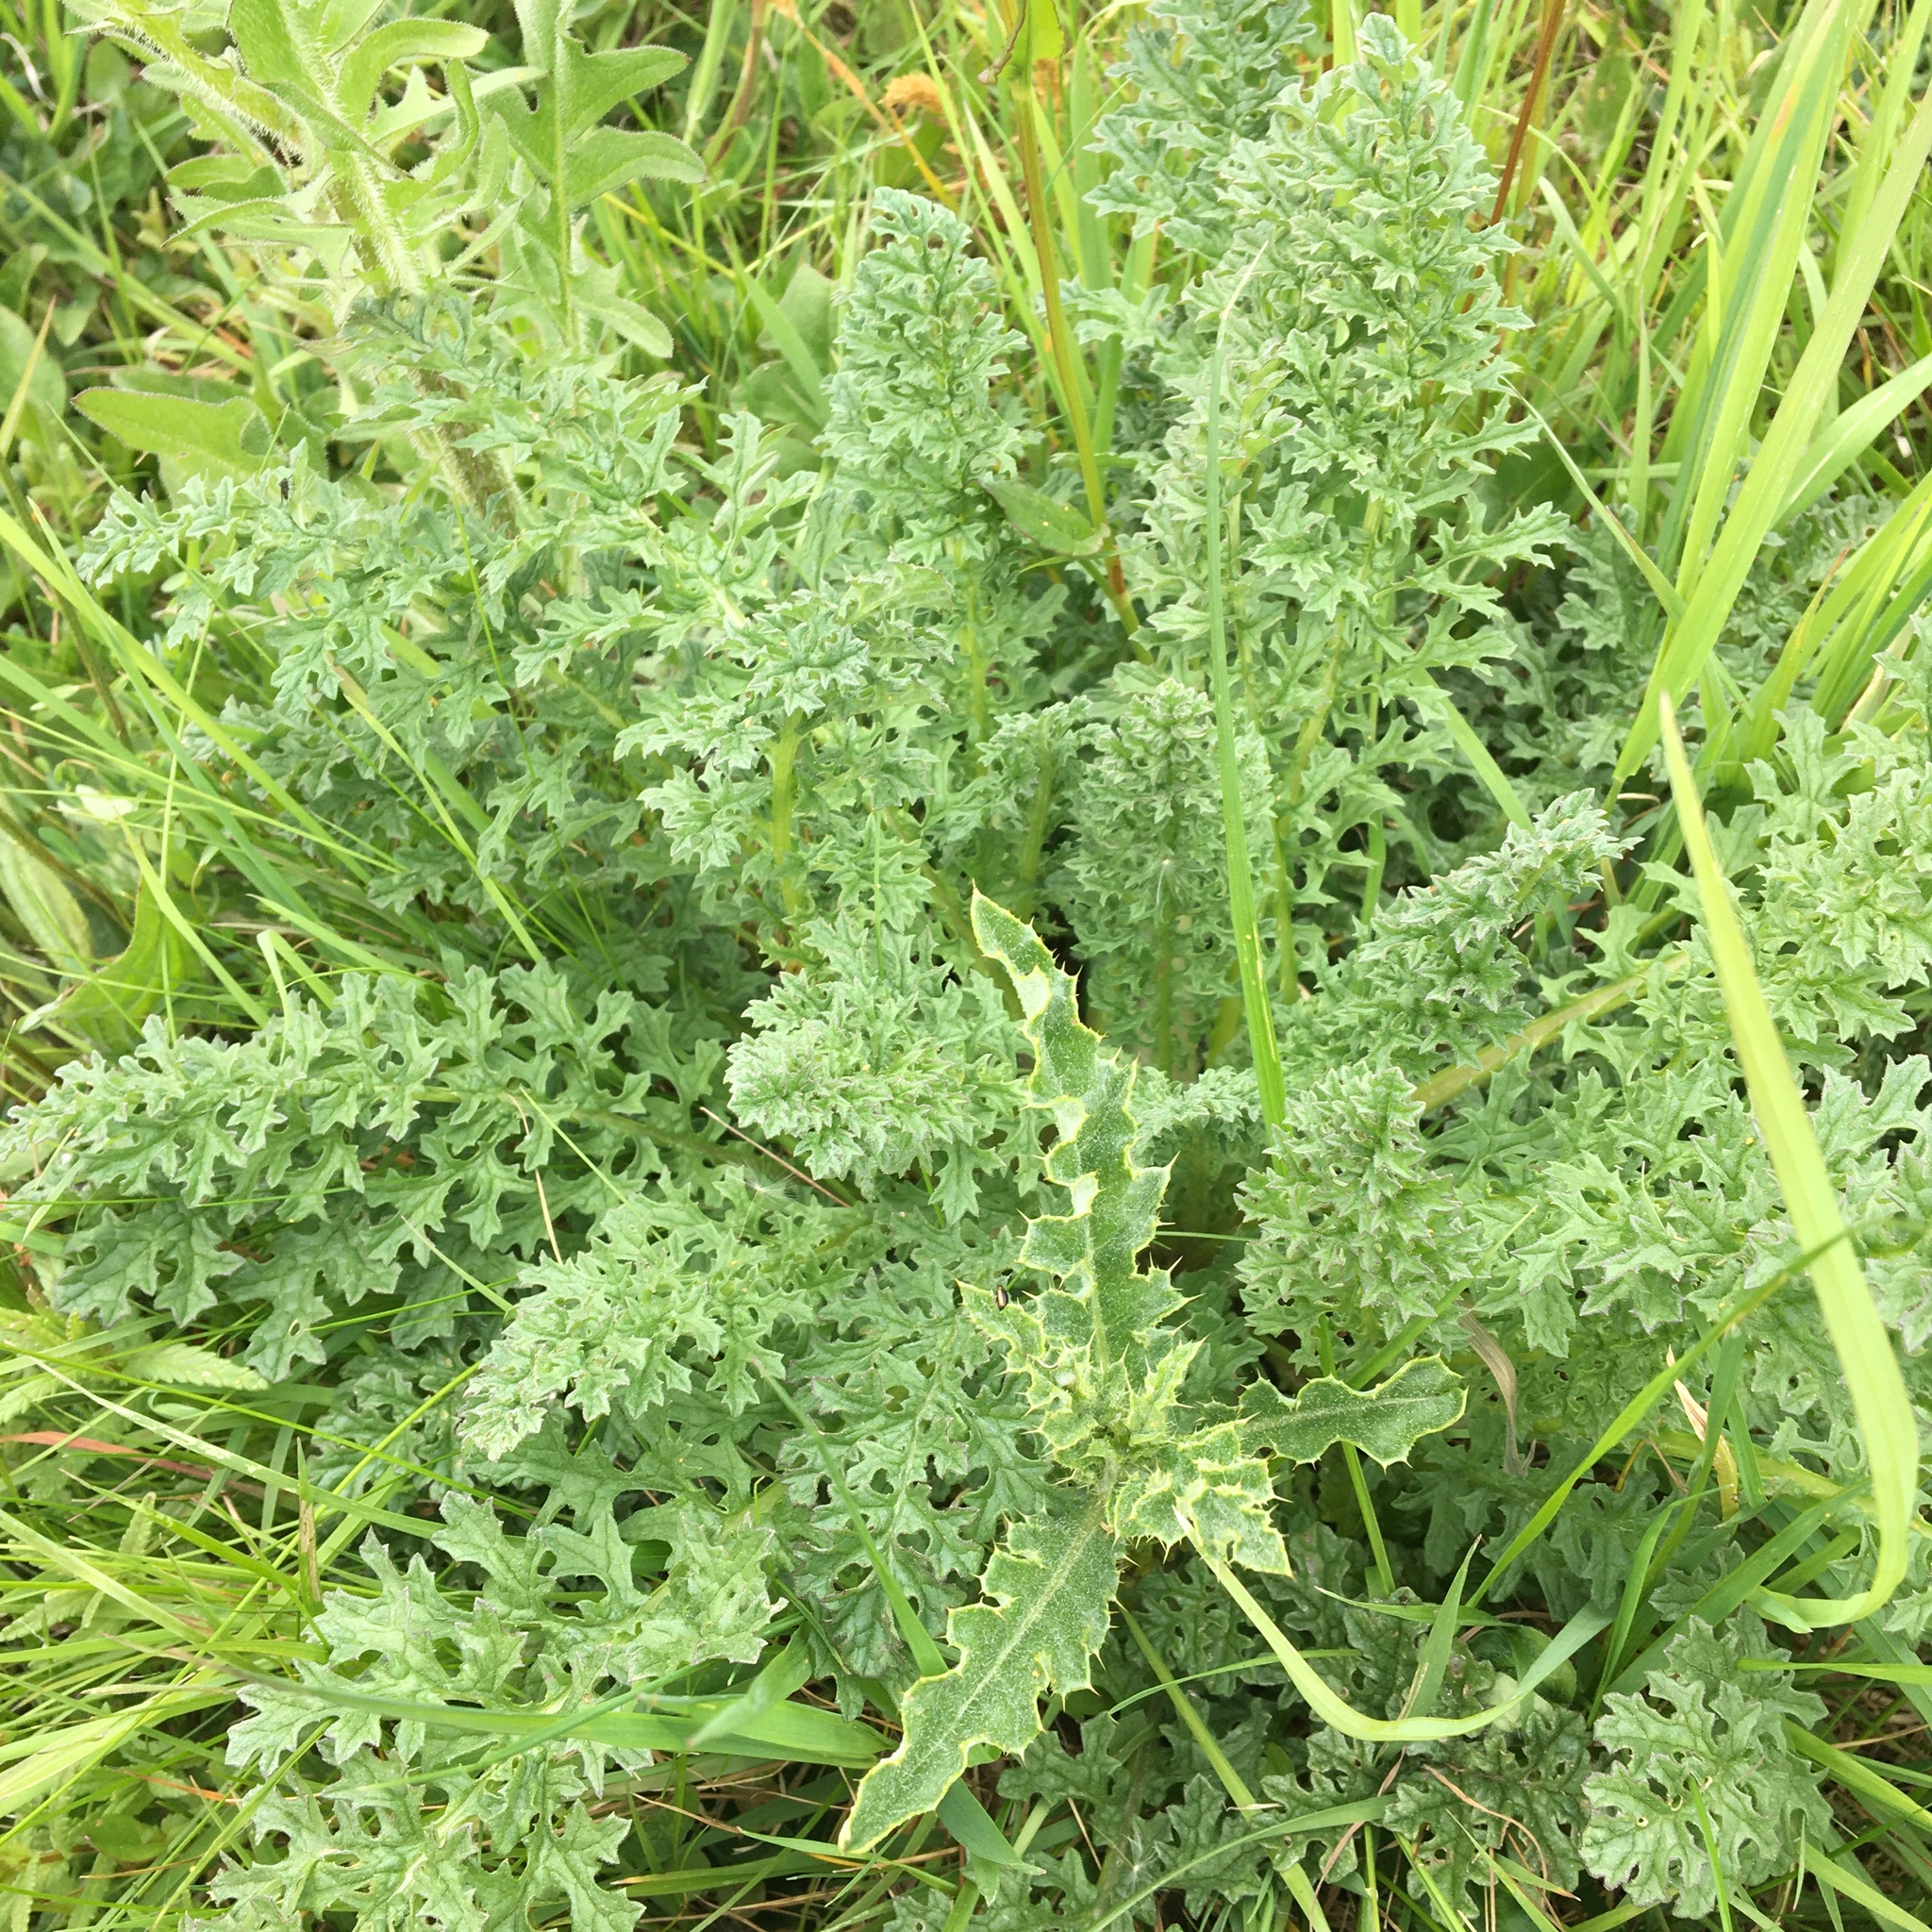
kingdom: Plantae
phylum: Tracheophyta
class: Magnoliopsida
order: Asterales
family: Asteraceae
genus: Jacobaea
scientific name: Jacobaea vulgaris
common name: Stinking willie
